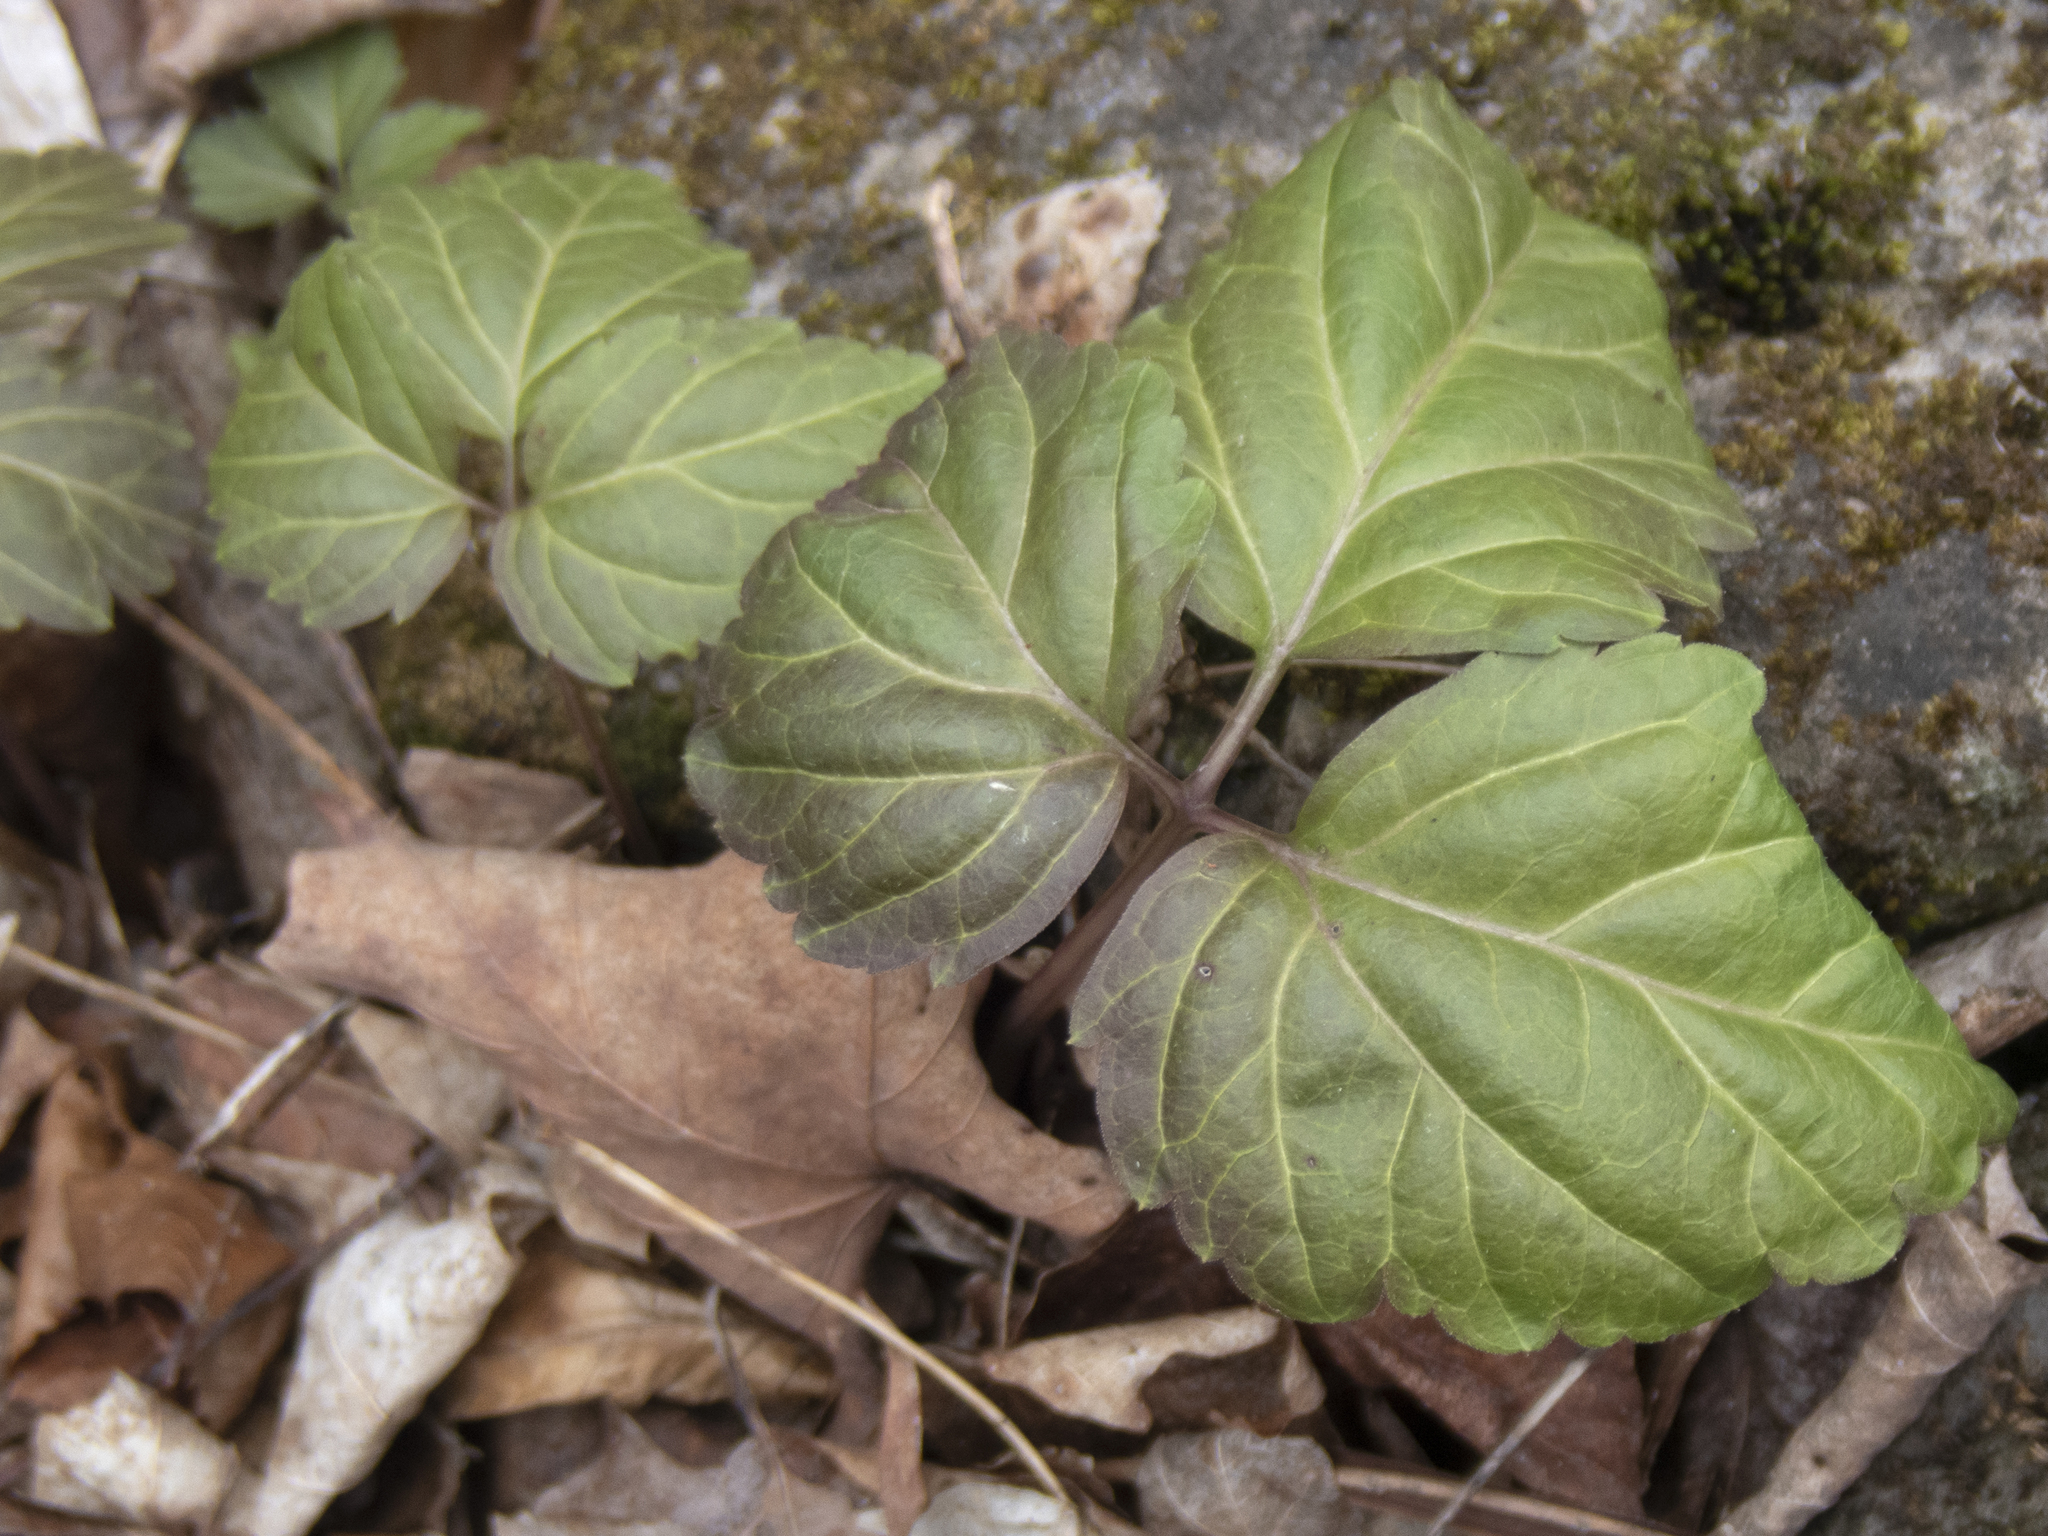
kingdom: Plantae
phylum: Tracheophyta
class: Magnoliopsida
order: Brassicales
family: Brassicaceae
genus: Cardamine
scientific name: Cardamine diphylla
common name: Broad-leaved toothwort
